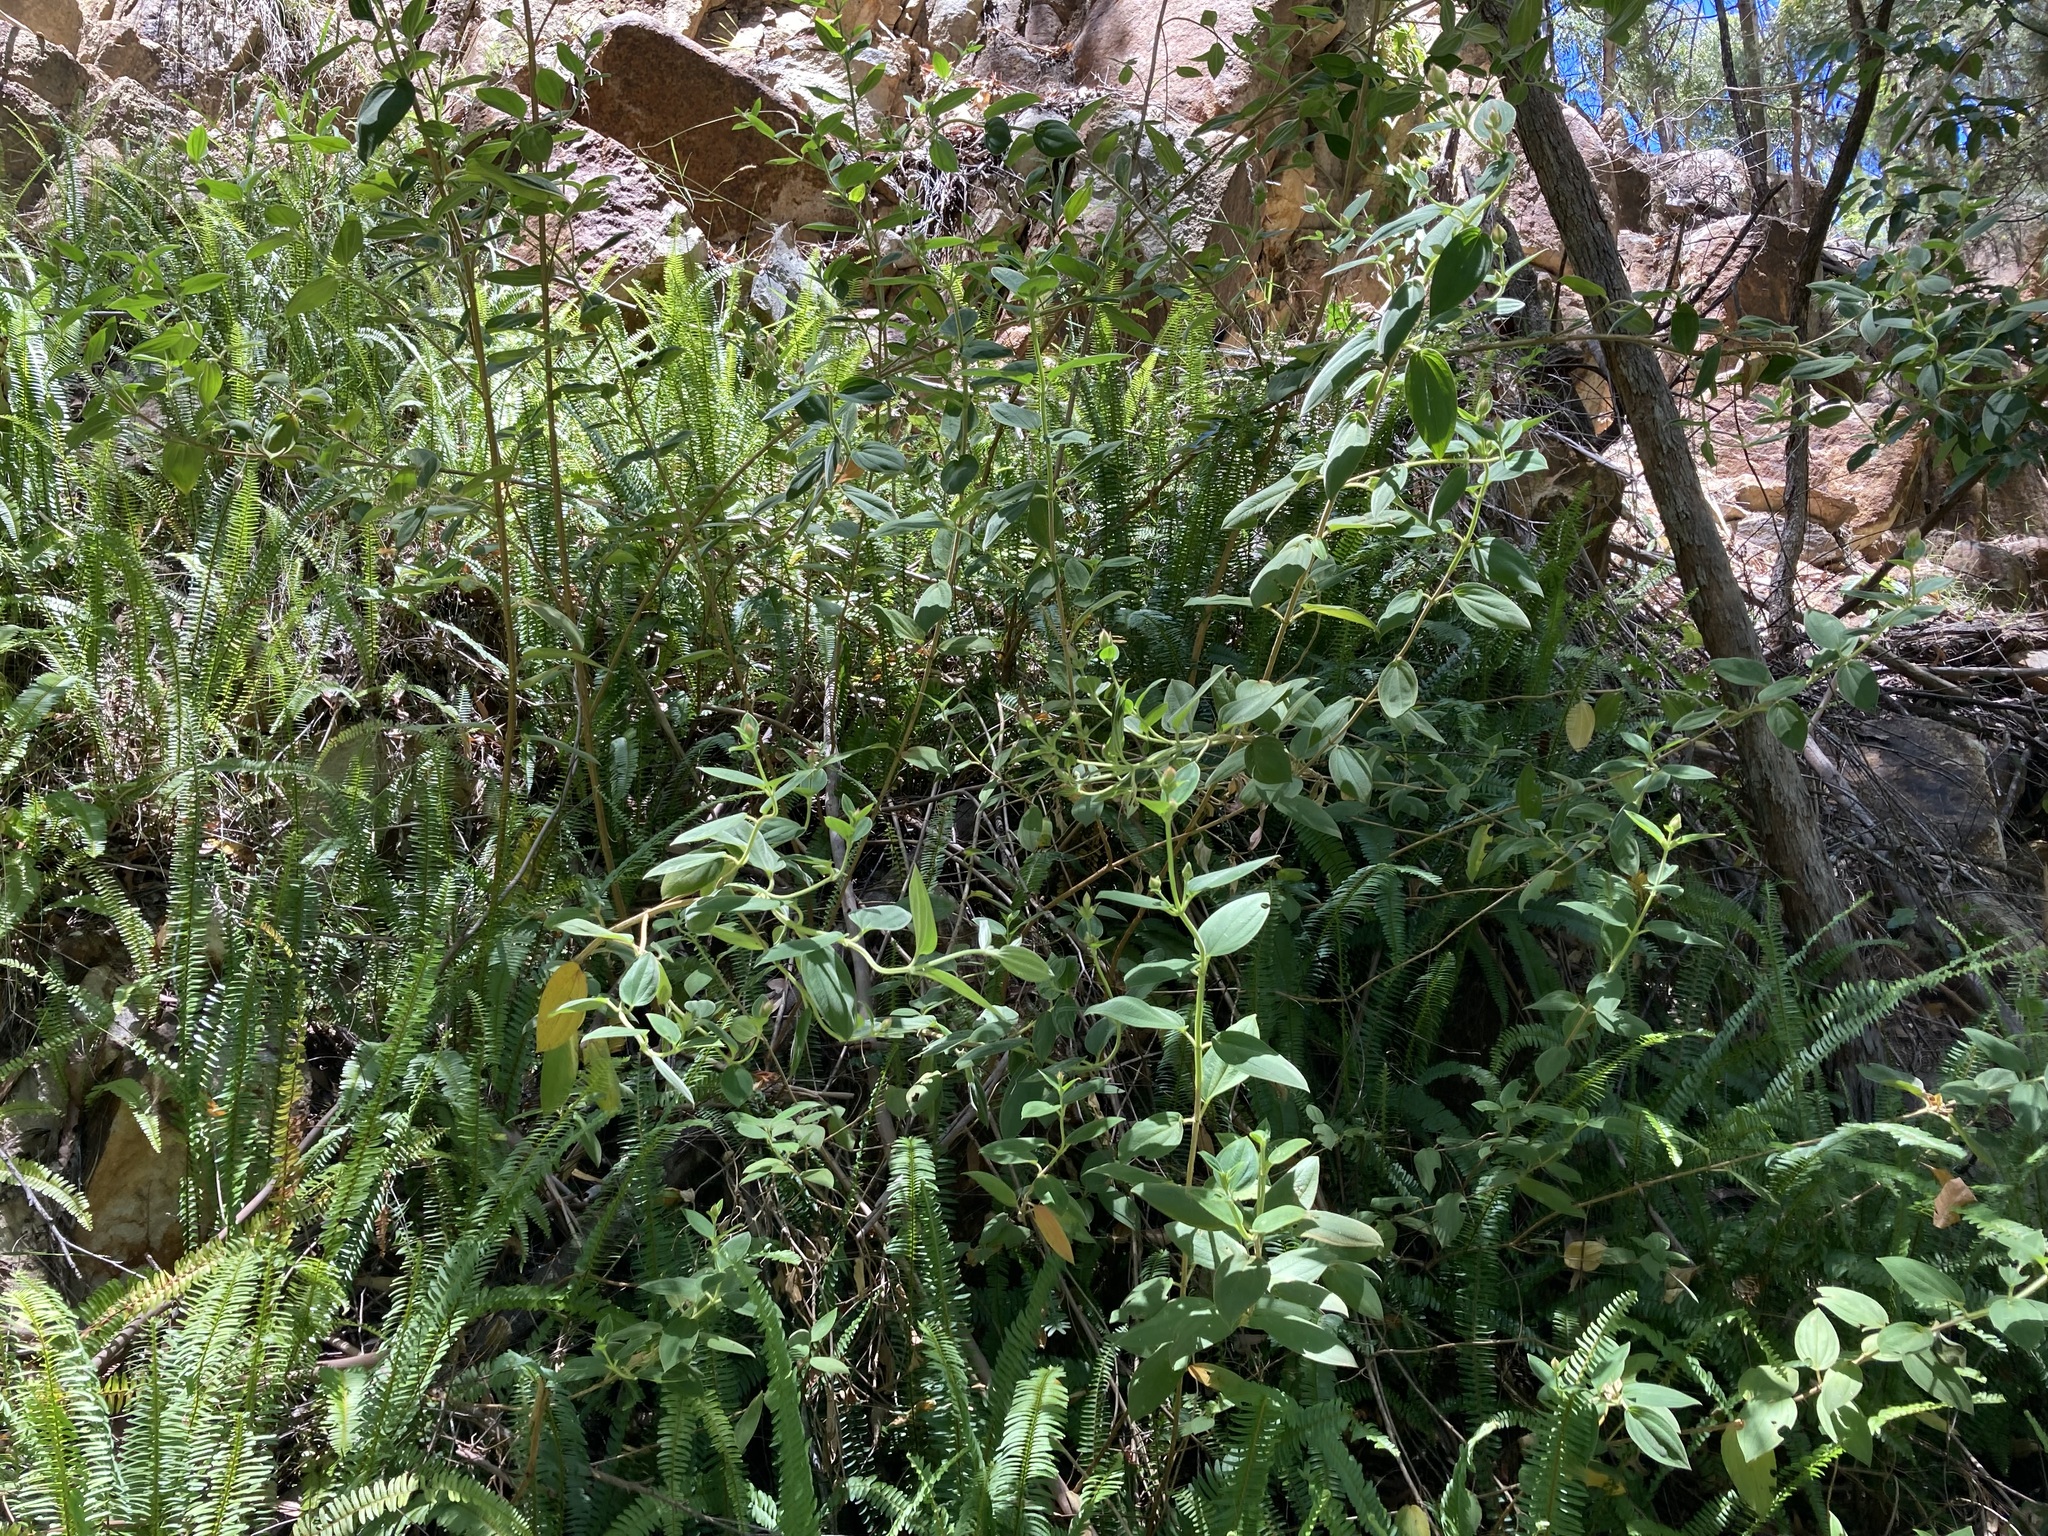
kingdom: Plantae
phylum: Tracheophyta
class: Magnoliopsida
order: Myrtales
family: Melastomataceae
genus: Pleroma
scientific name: Pleroma urvilleanum
